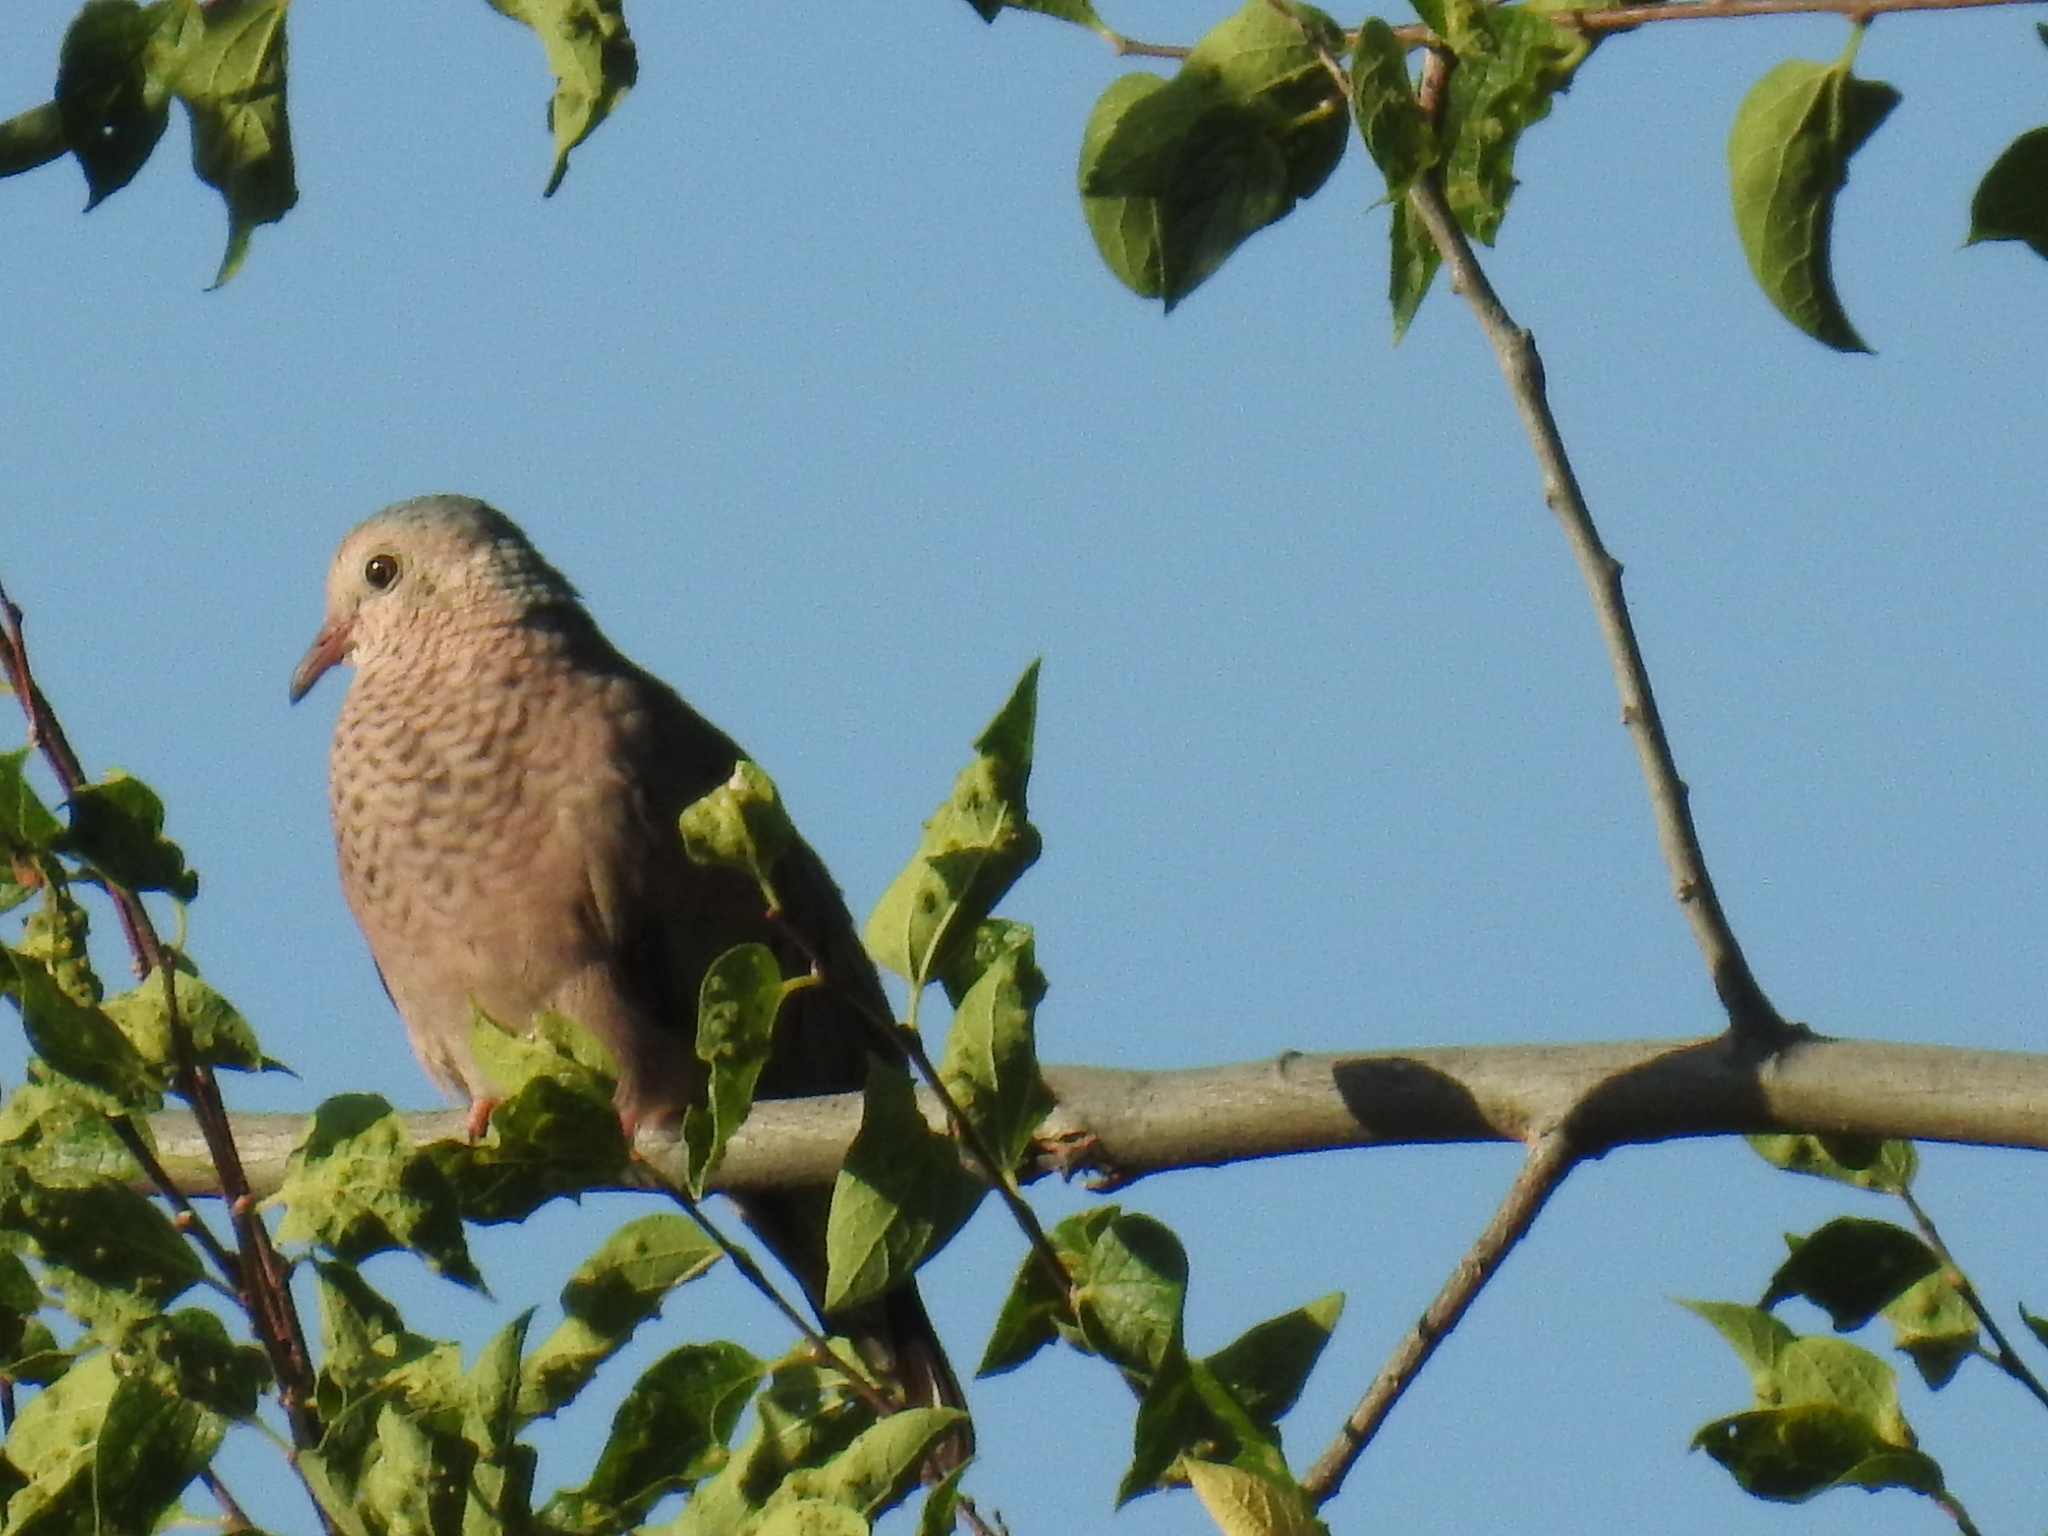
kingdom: Animalia
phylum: Chordata
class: Aves
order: Columbiformes
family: Columbidae
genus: Columbina
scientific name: Columbina passerina
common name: Common ground-dove
